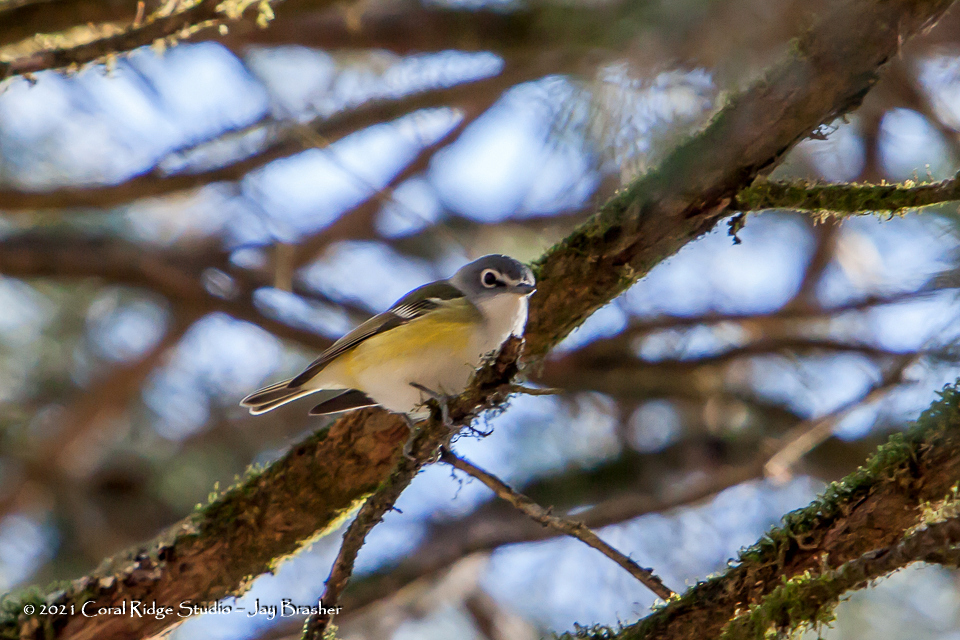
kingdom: Animalia
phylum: Chordata
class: Aves
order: Passeriformes
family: Vireonidae
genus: Vireo
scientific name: Vireo solitarius
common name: Blue-headed vireo
